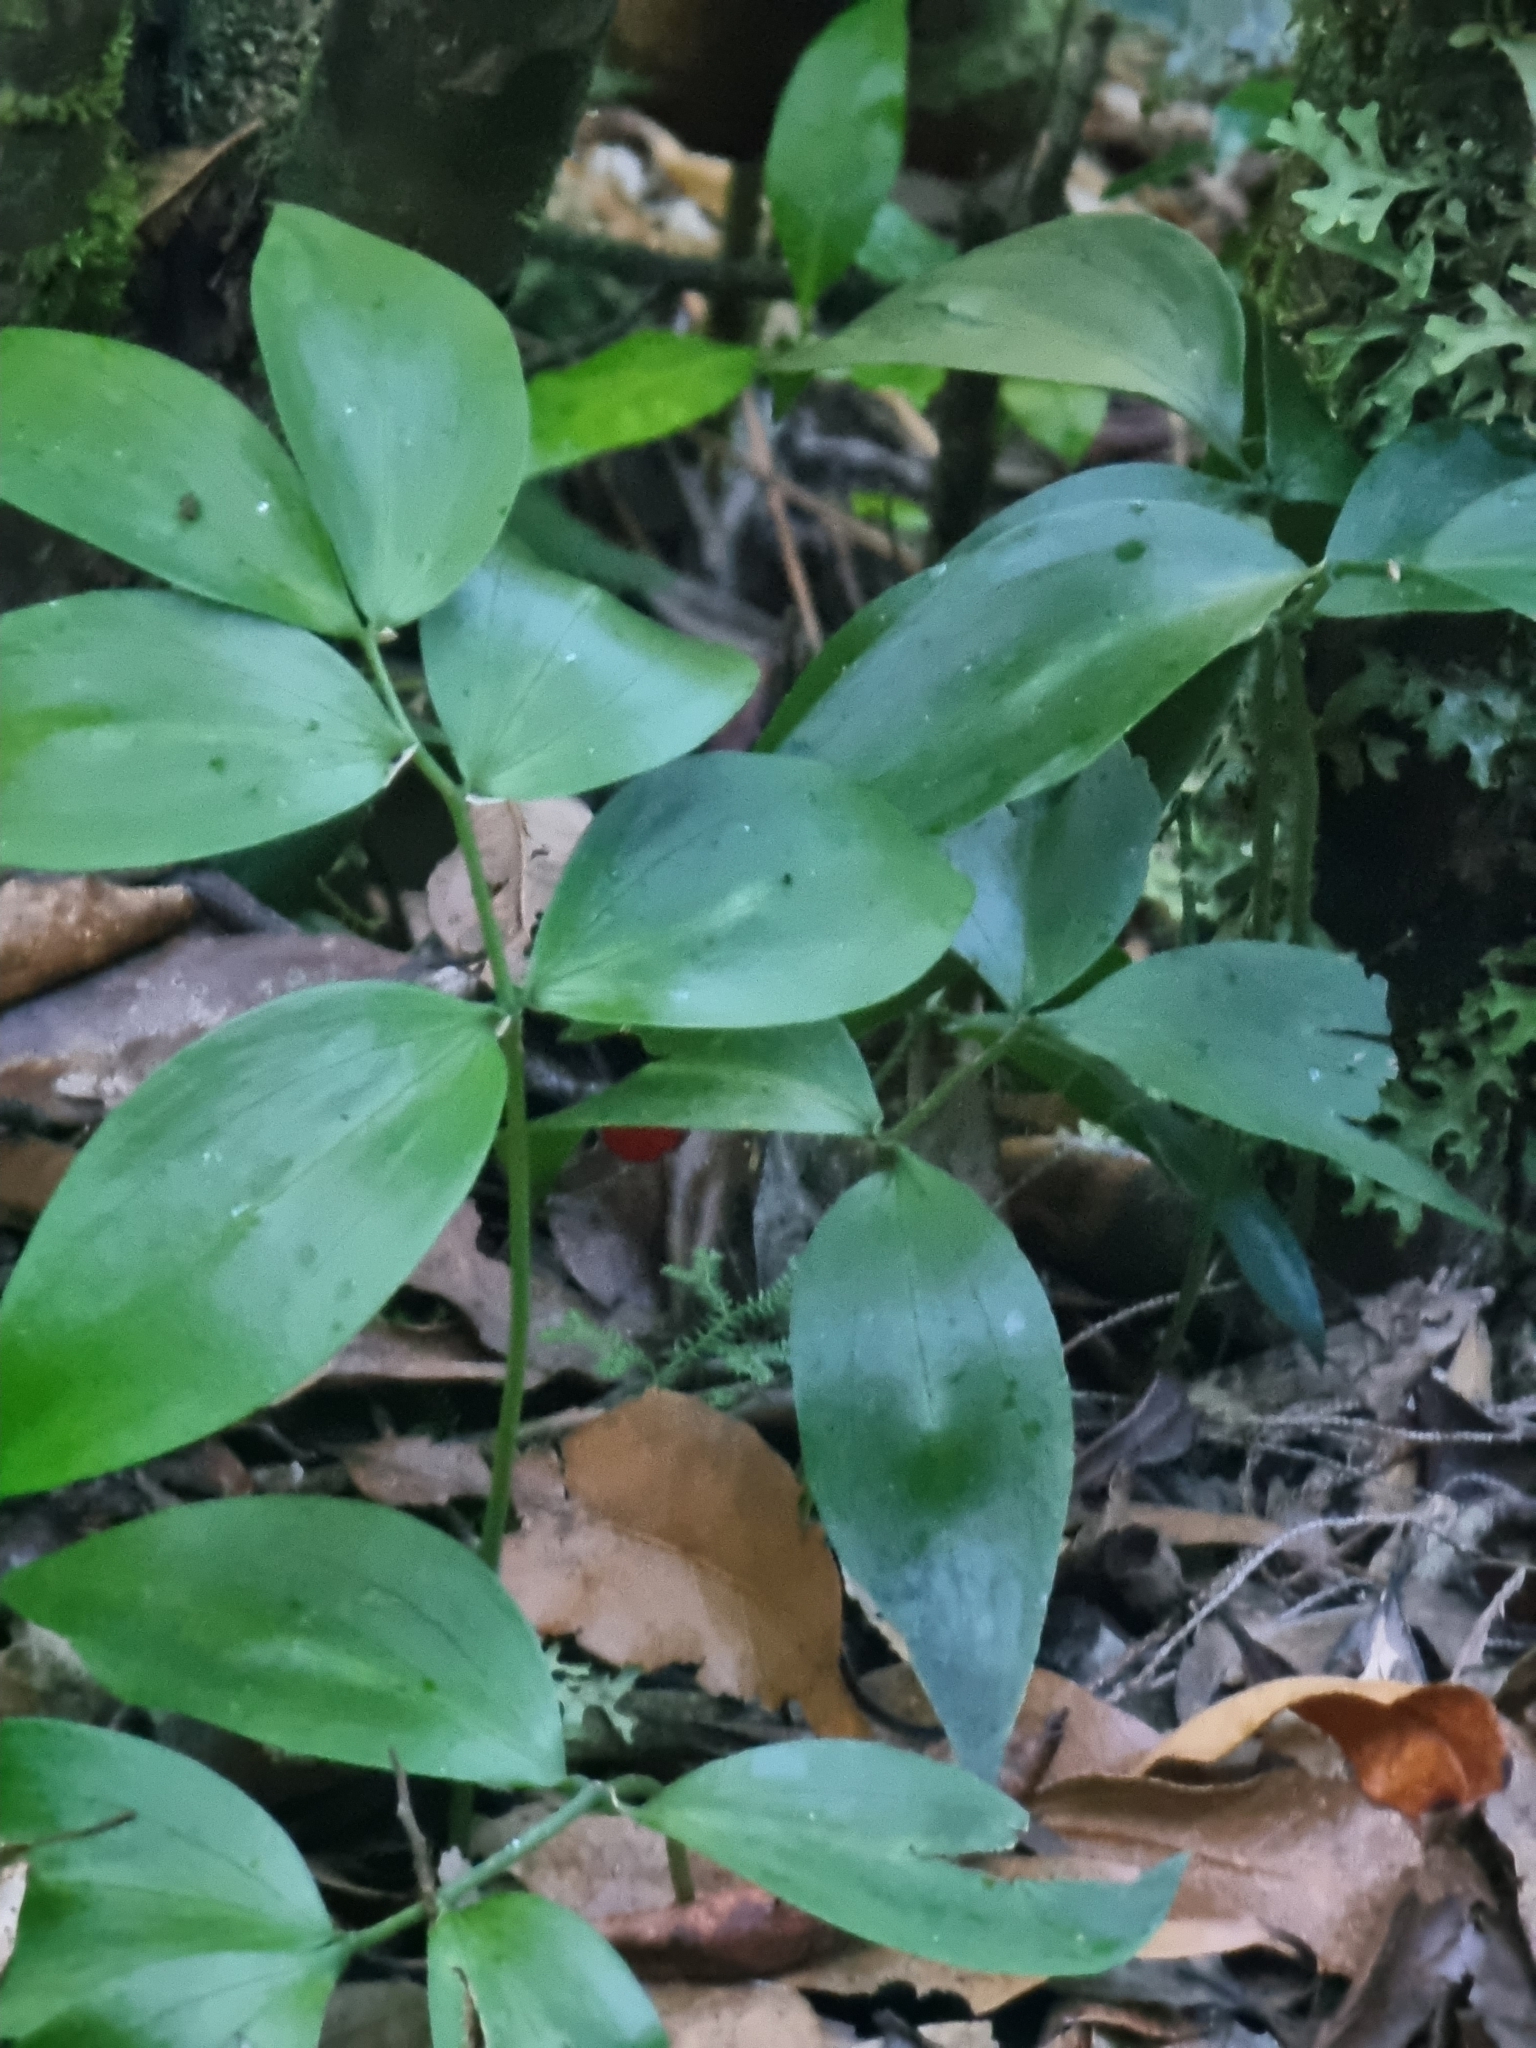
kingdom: Plantae
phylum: Tracheophyta
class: Liliopsida
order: Asparagales
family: Asparagaceae
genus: Ruscus
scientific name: Ruscus streptophyllus
